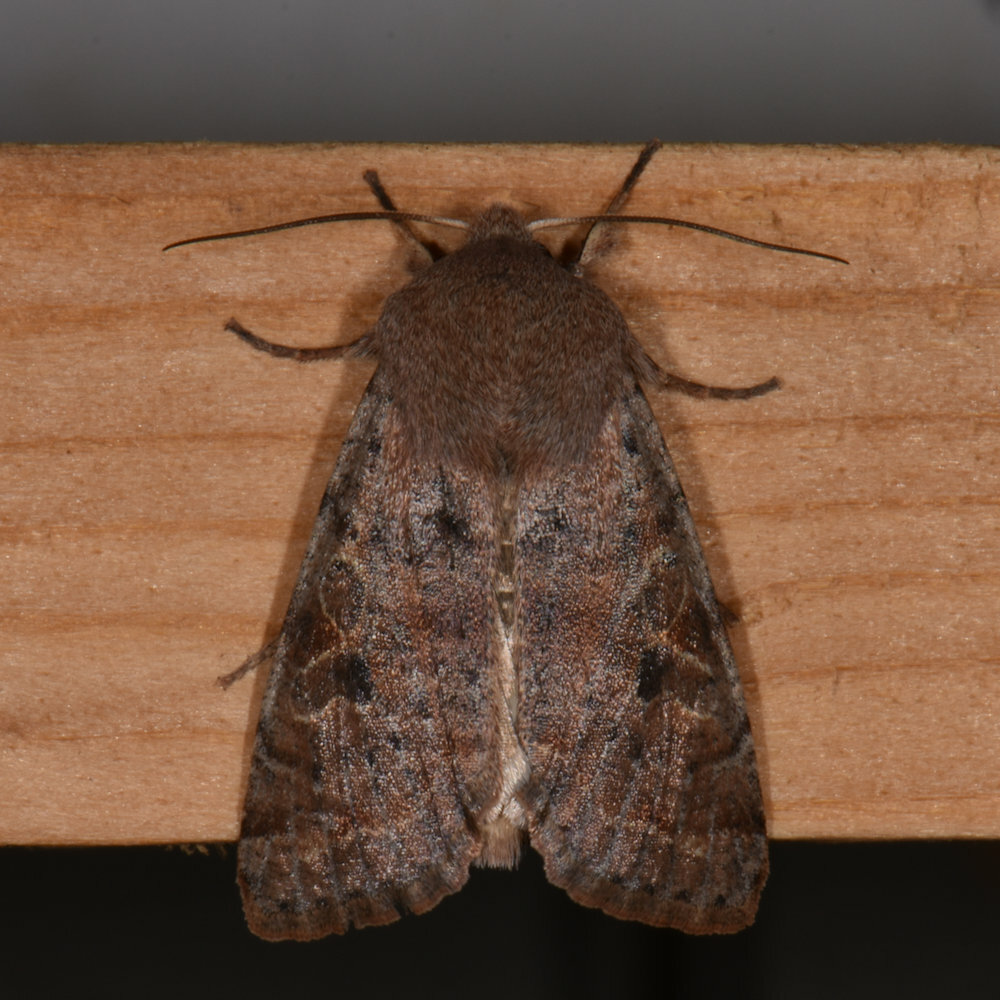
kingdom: Animalia
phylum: Arthropoda
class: Insecta
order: Lepidoptera
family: Noctuidae
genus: Orthosia
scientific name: Orthosia hibisci
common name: Green fruitworm
